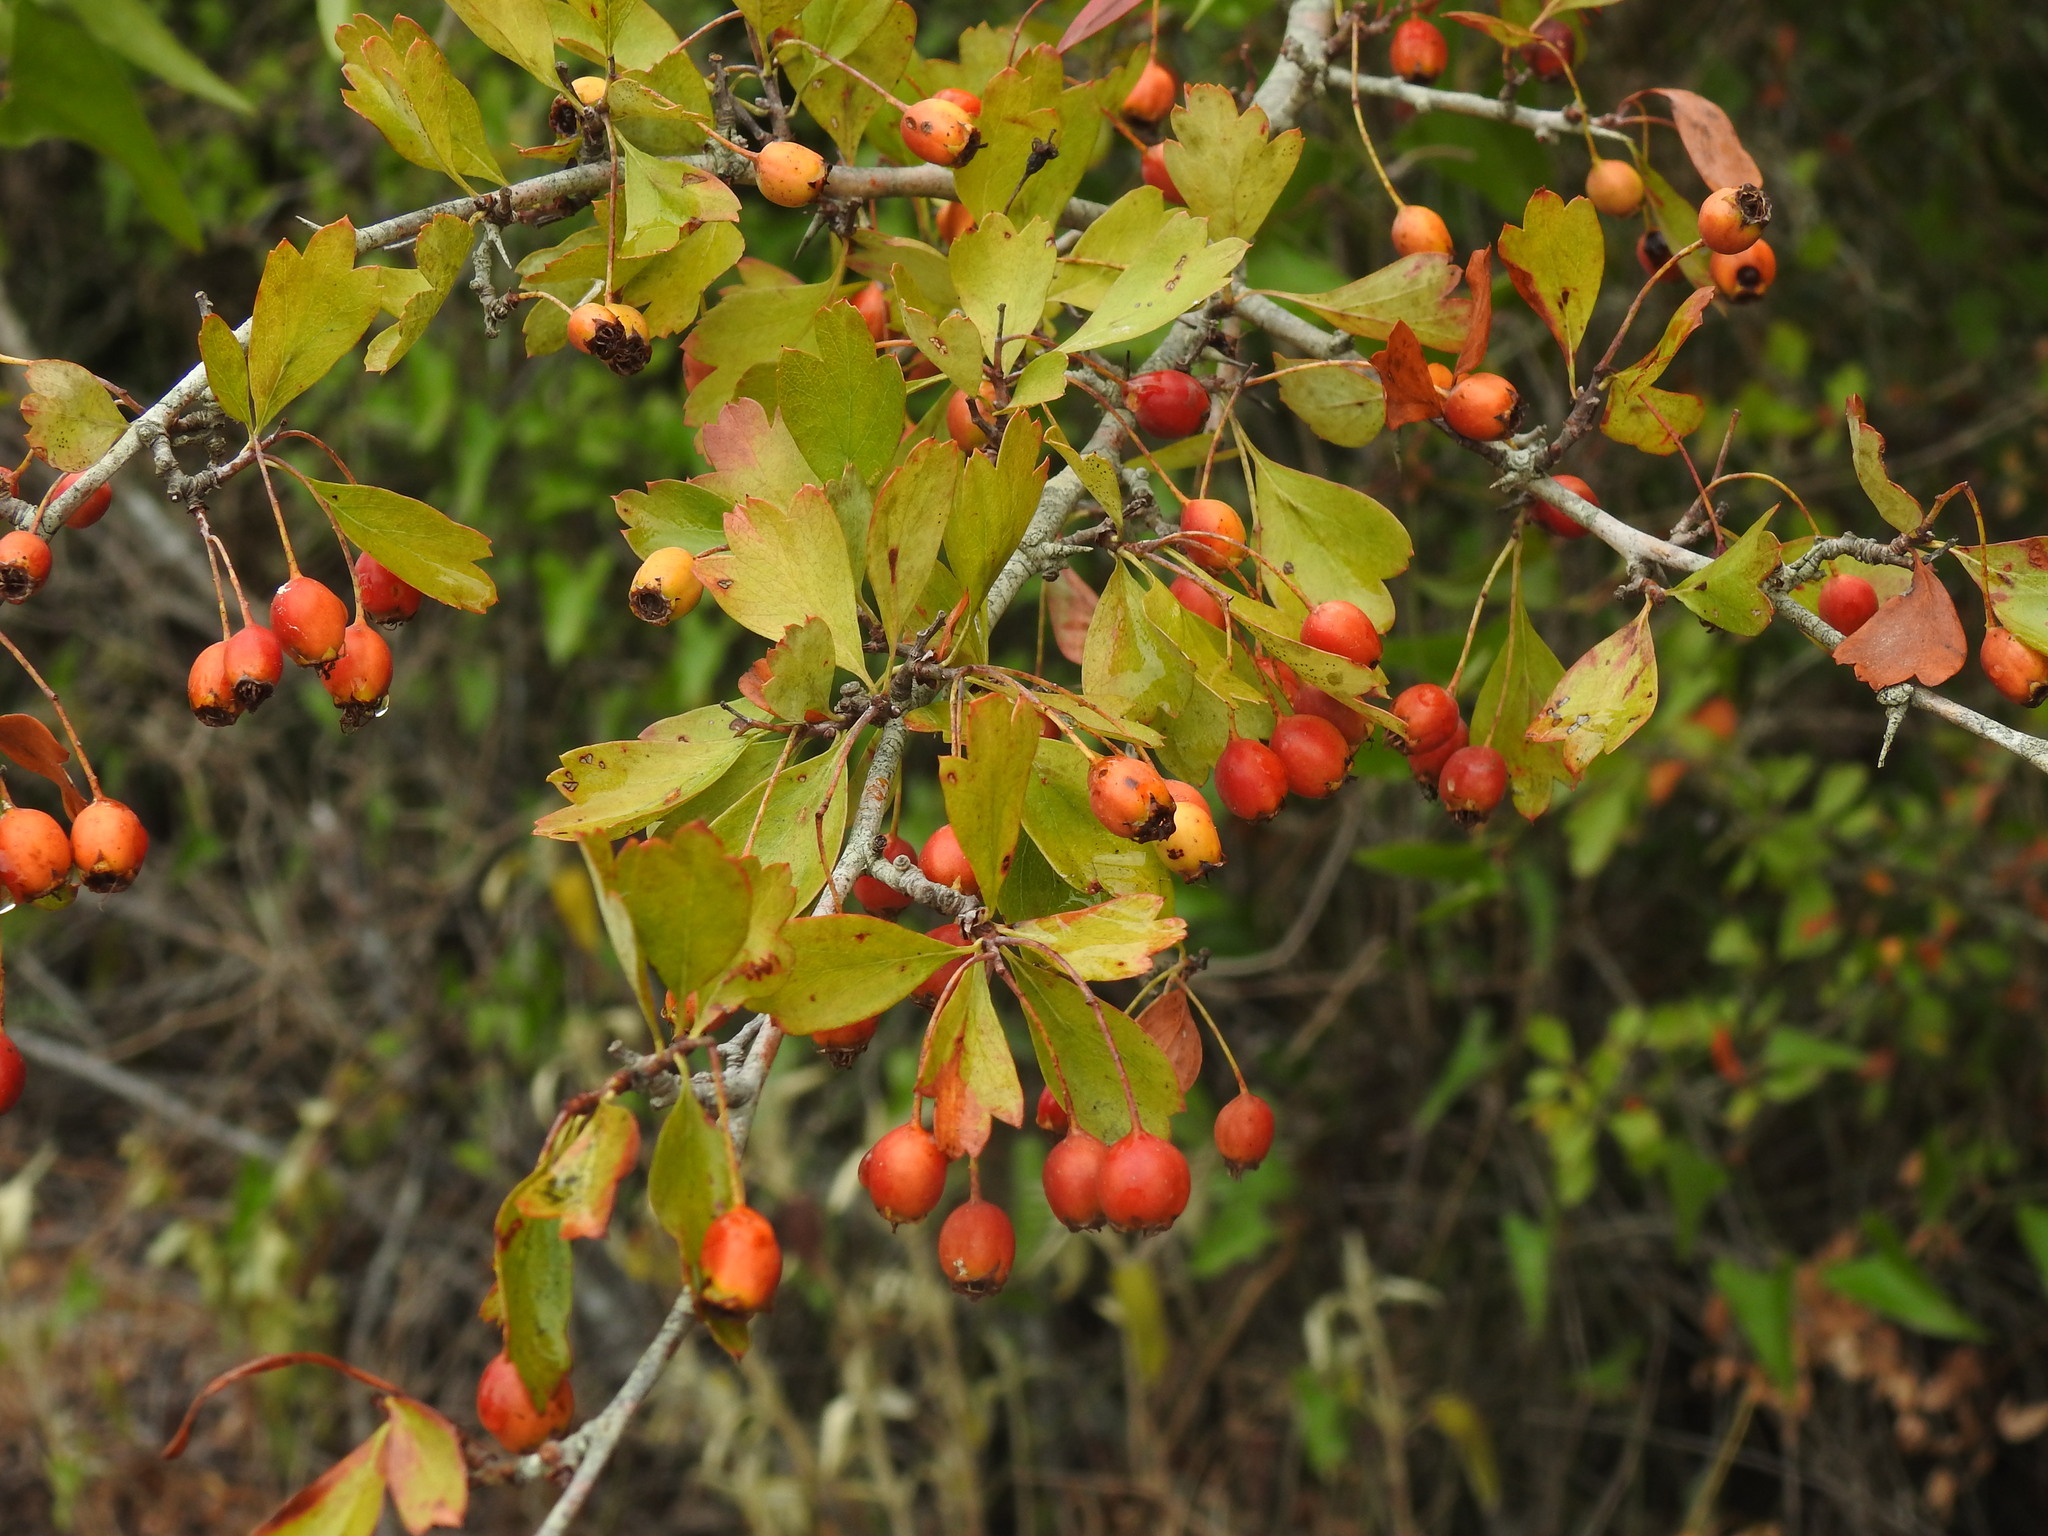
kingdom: Plantae
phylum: Tracheophyta
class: Magnoliopsida
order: Rosales
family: Rosaceae
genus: Crataegus
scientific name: Crataegus monogyna
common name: Hawthorn
